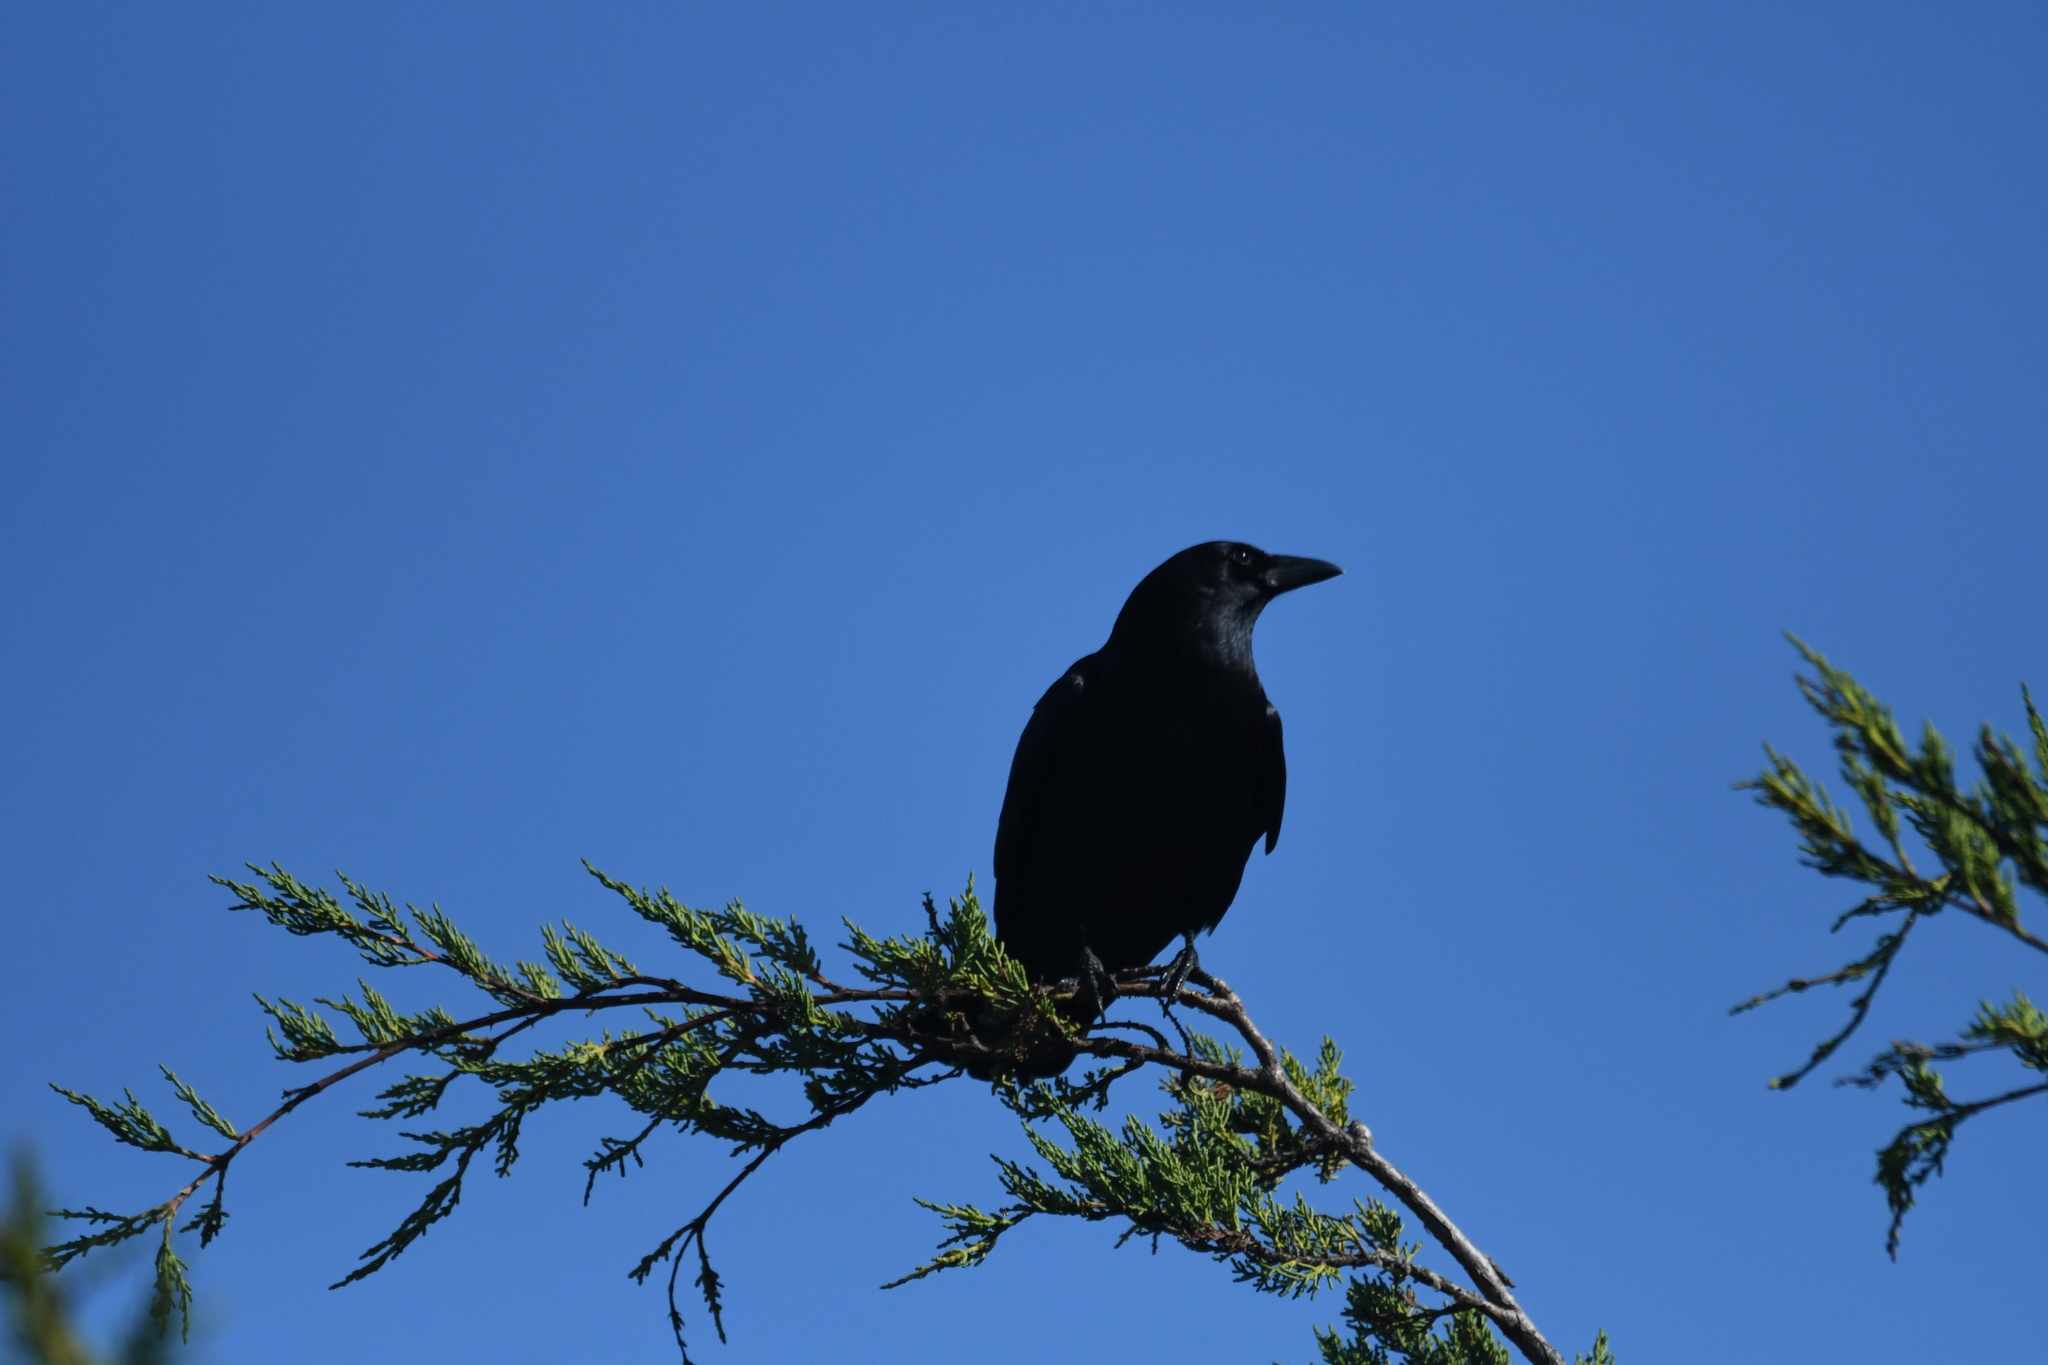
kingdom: Animalia
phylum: Chordata
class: Aves
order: Passeriformes
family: Corvidae
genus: Corvus
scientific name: Corvus brachyrhynchos
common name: American crow
